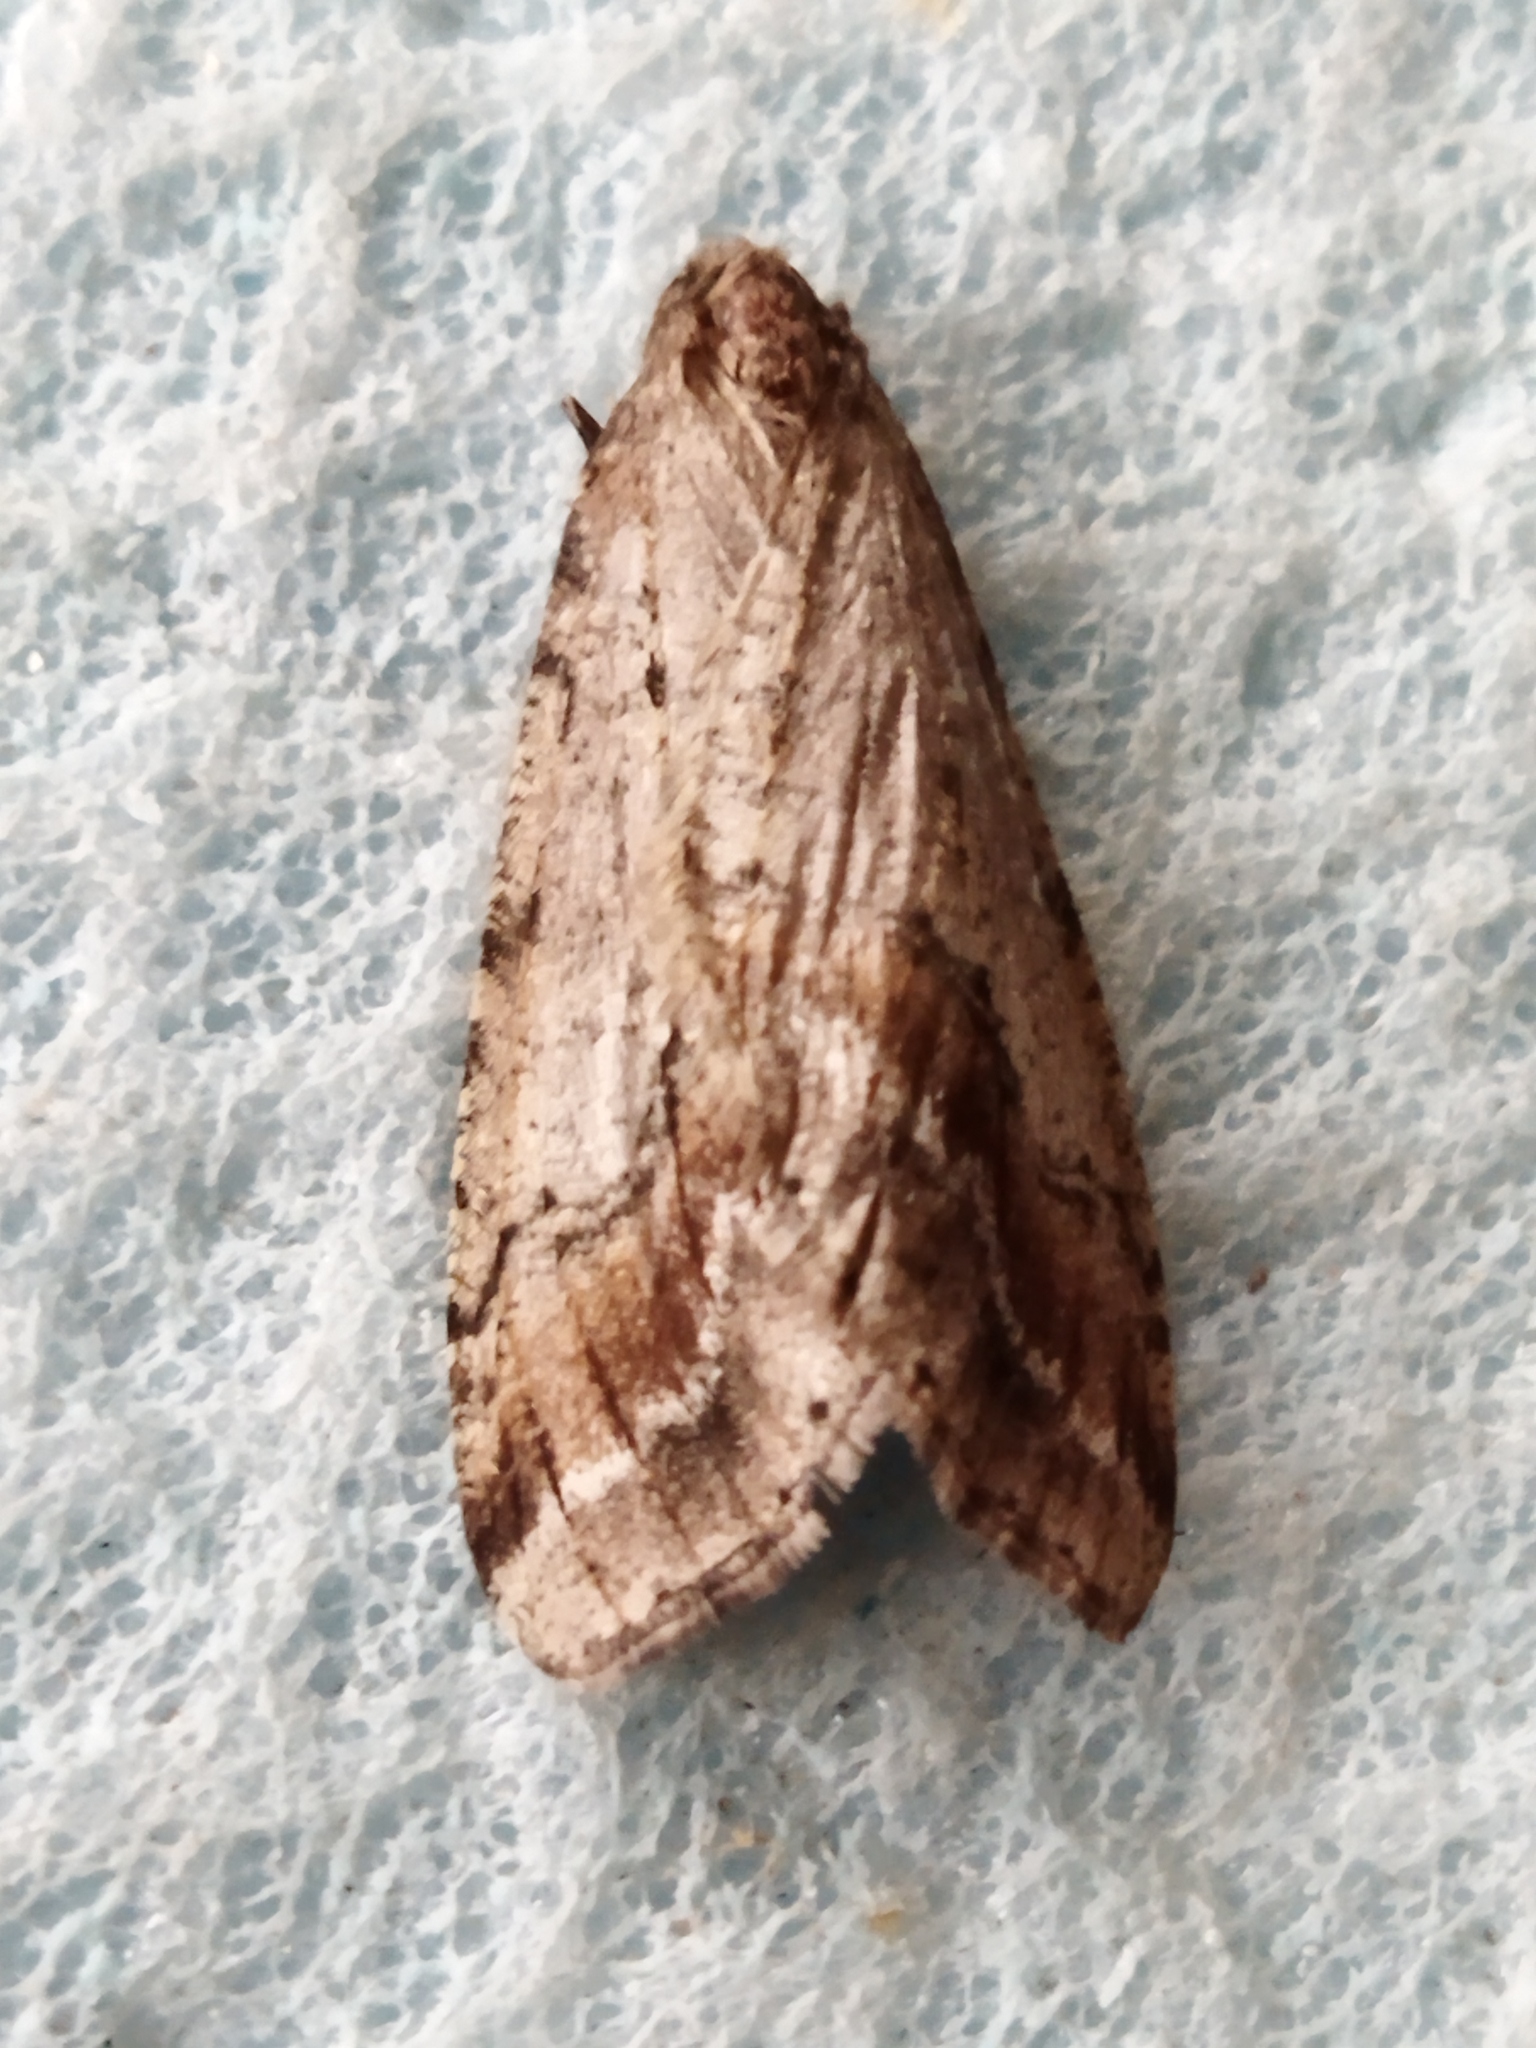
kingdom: Animalia
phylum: Arthropoda
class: Insecta
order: Lepidoptera
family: Geometridae
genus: Erannis
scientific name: Erannis declinans
